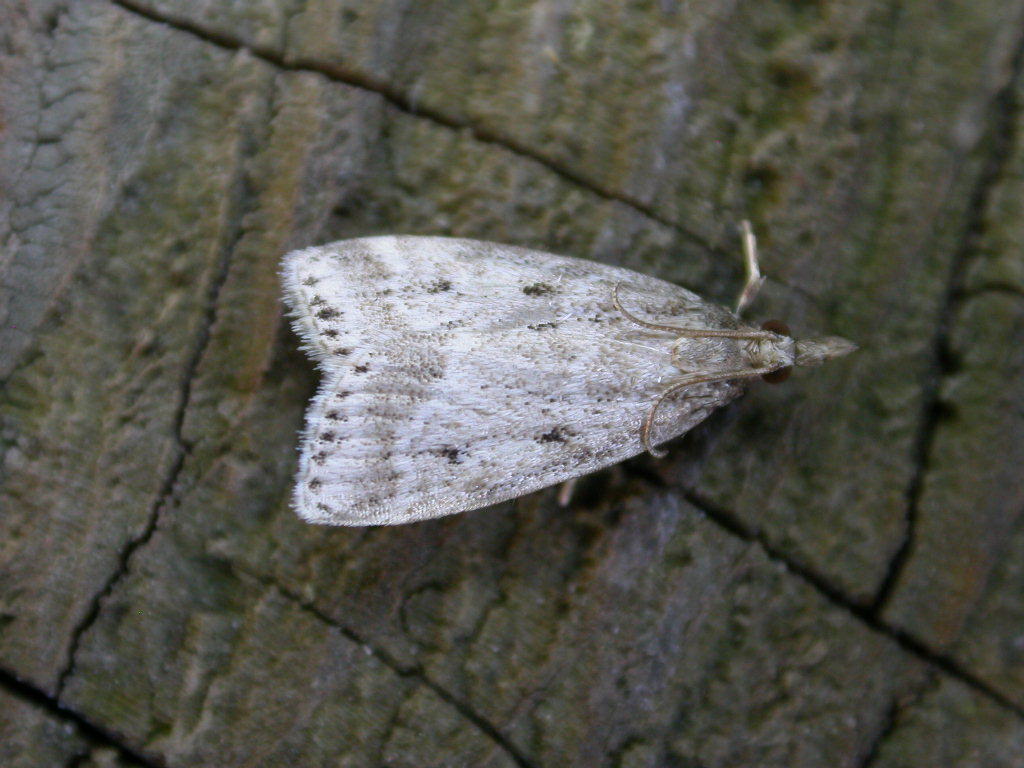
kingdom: Animalia
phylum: Arthropoda
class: Insecta
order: Lepidoptera
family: Crambidae
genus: Eudonia
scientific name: Eudonia truncicolella
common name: Ground-moss grey
